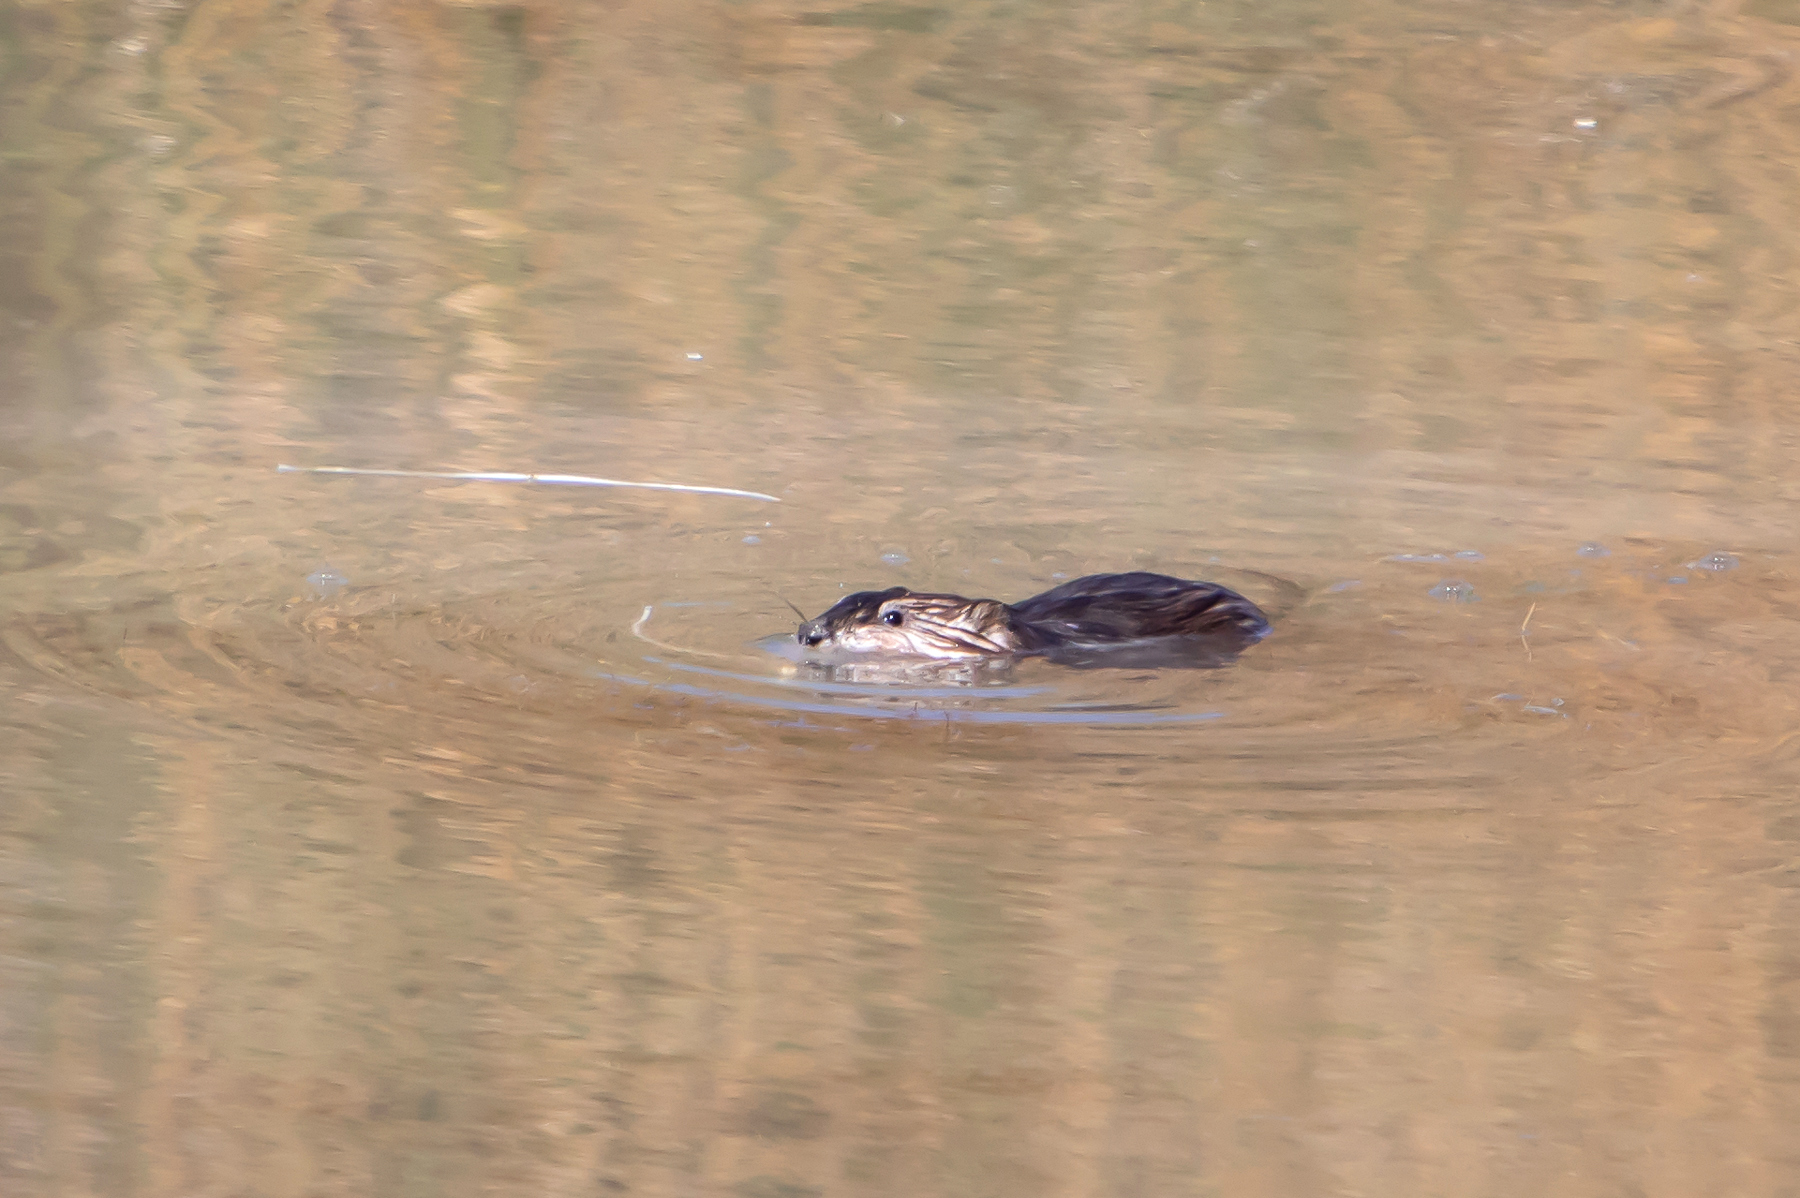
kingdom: Animalia
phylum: Chordata
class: Mammalia
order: Rodentia
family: Cricetidae
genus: Ondatra
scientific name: Ondatra zibethicus
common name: Muskrat
